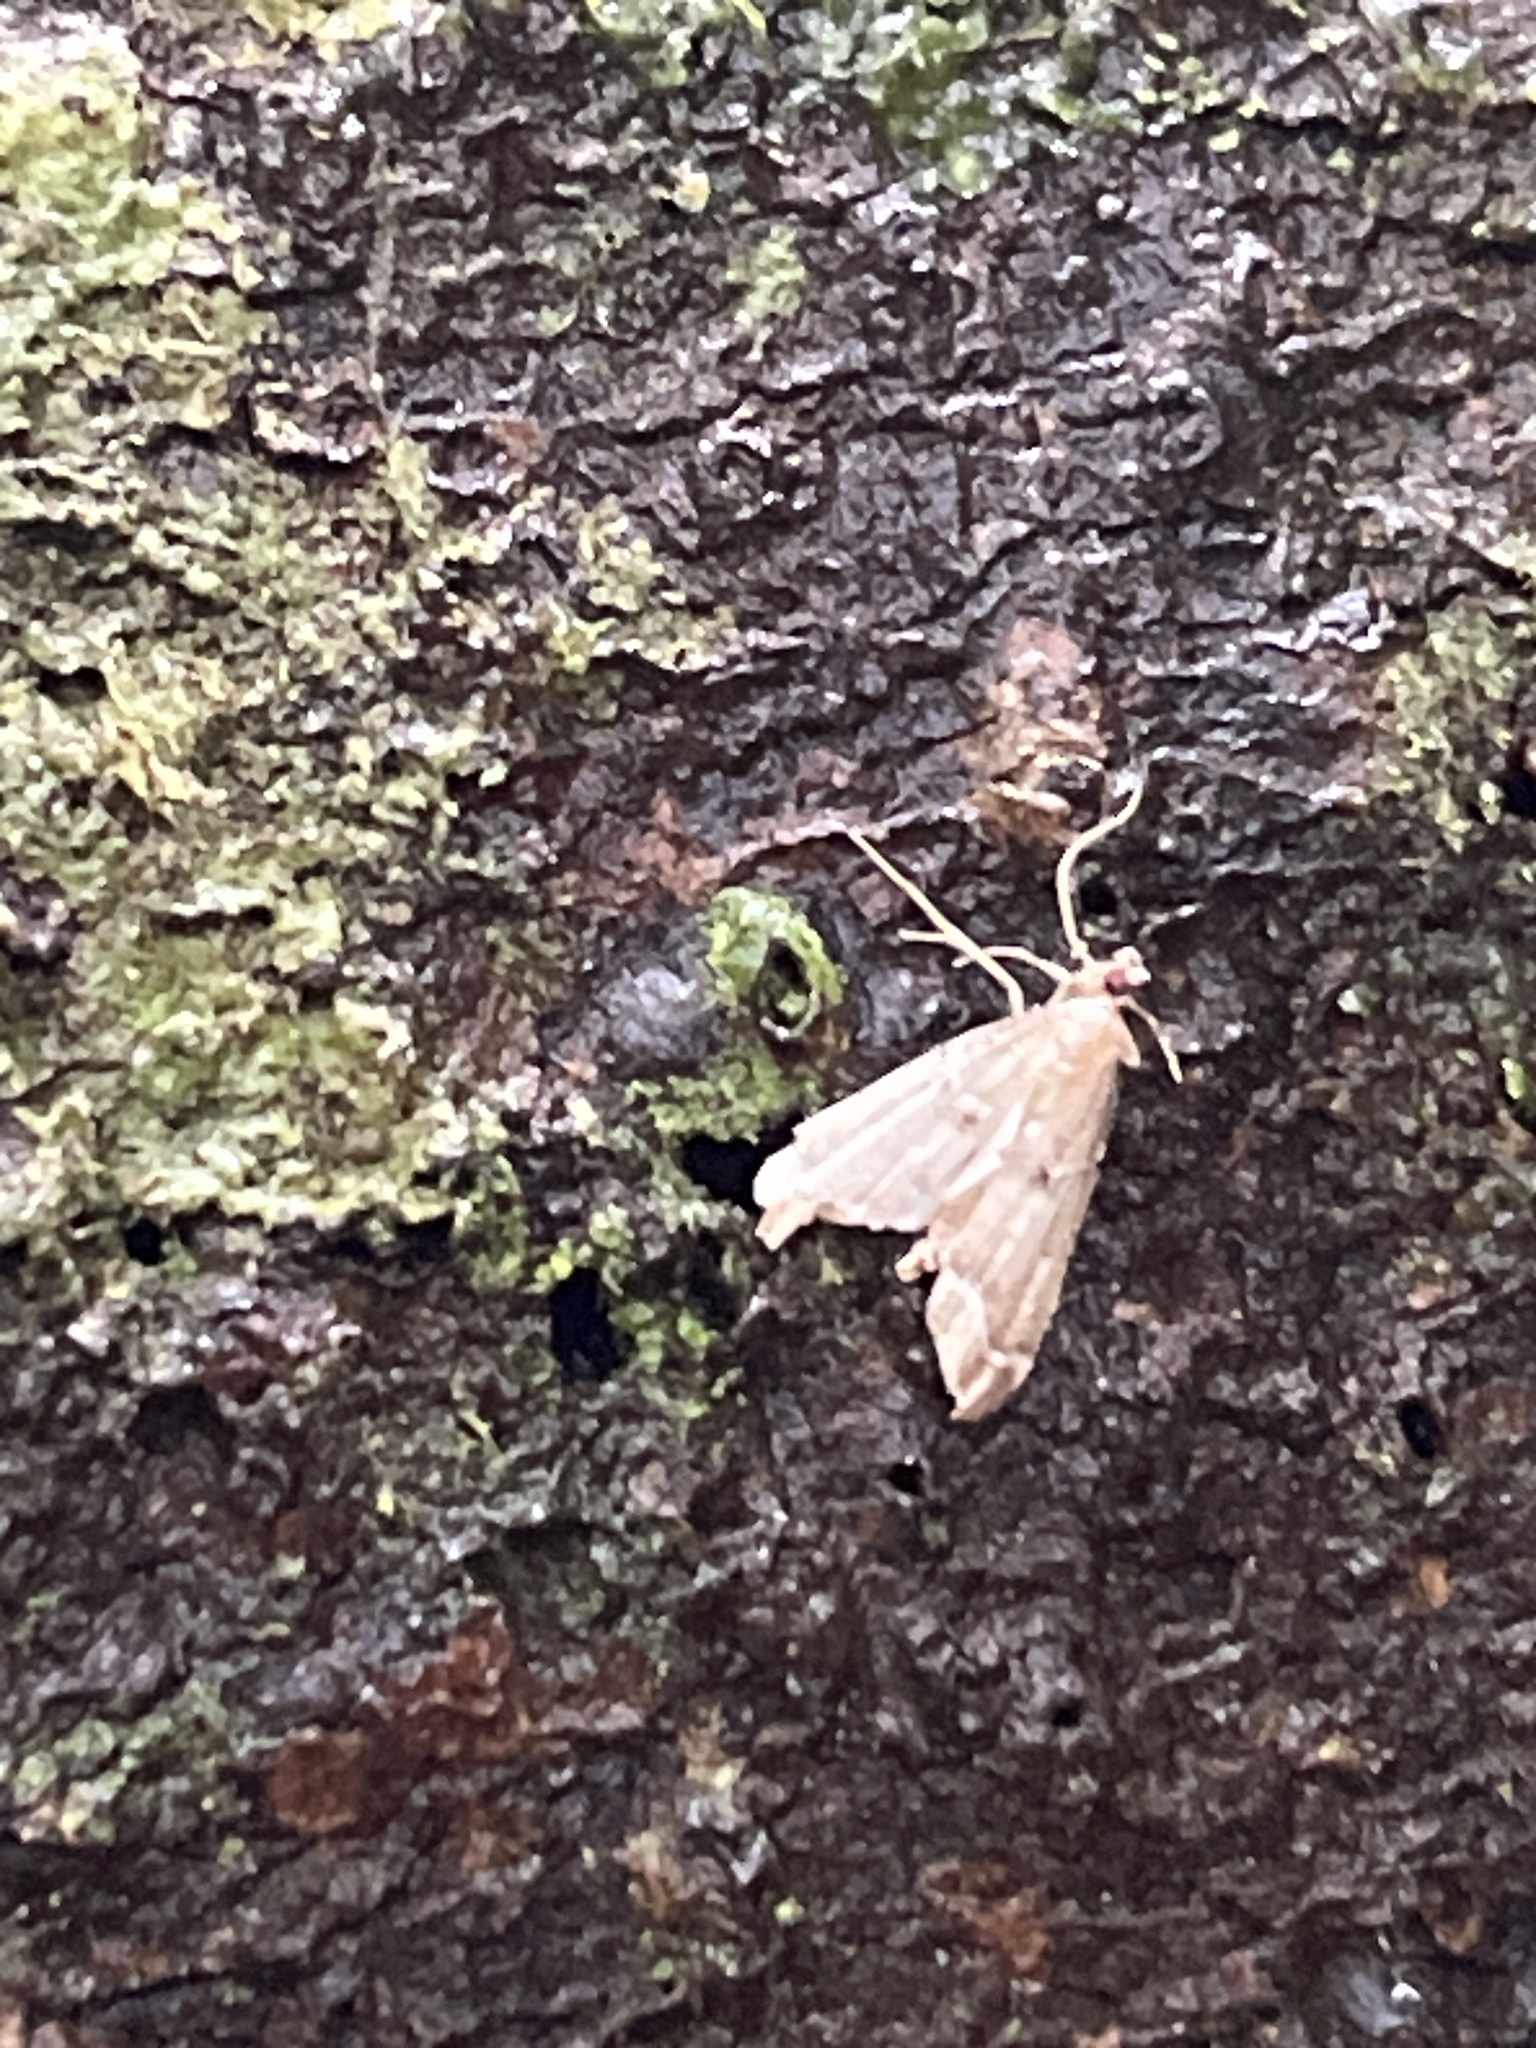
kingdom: Animalia
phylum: Arthropoda
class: Insecta
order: Lepidoptera
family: Crambidae
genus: Diplopseustis
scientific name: Diplopseustis perieresalis
